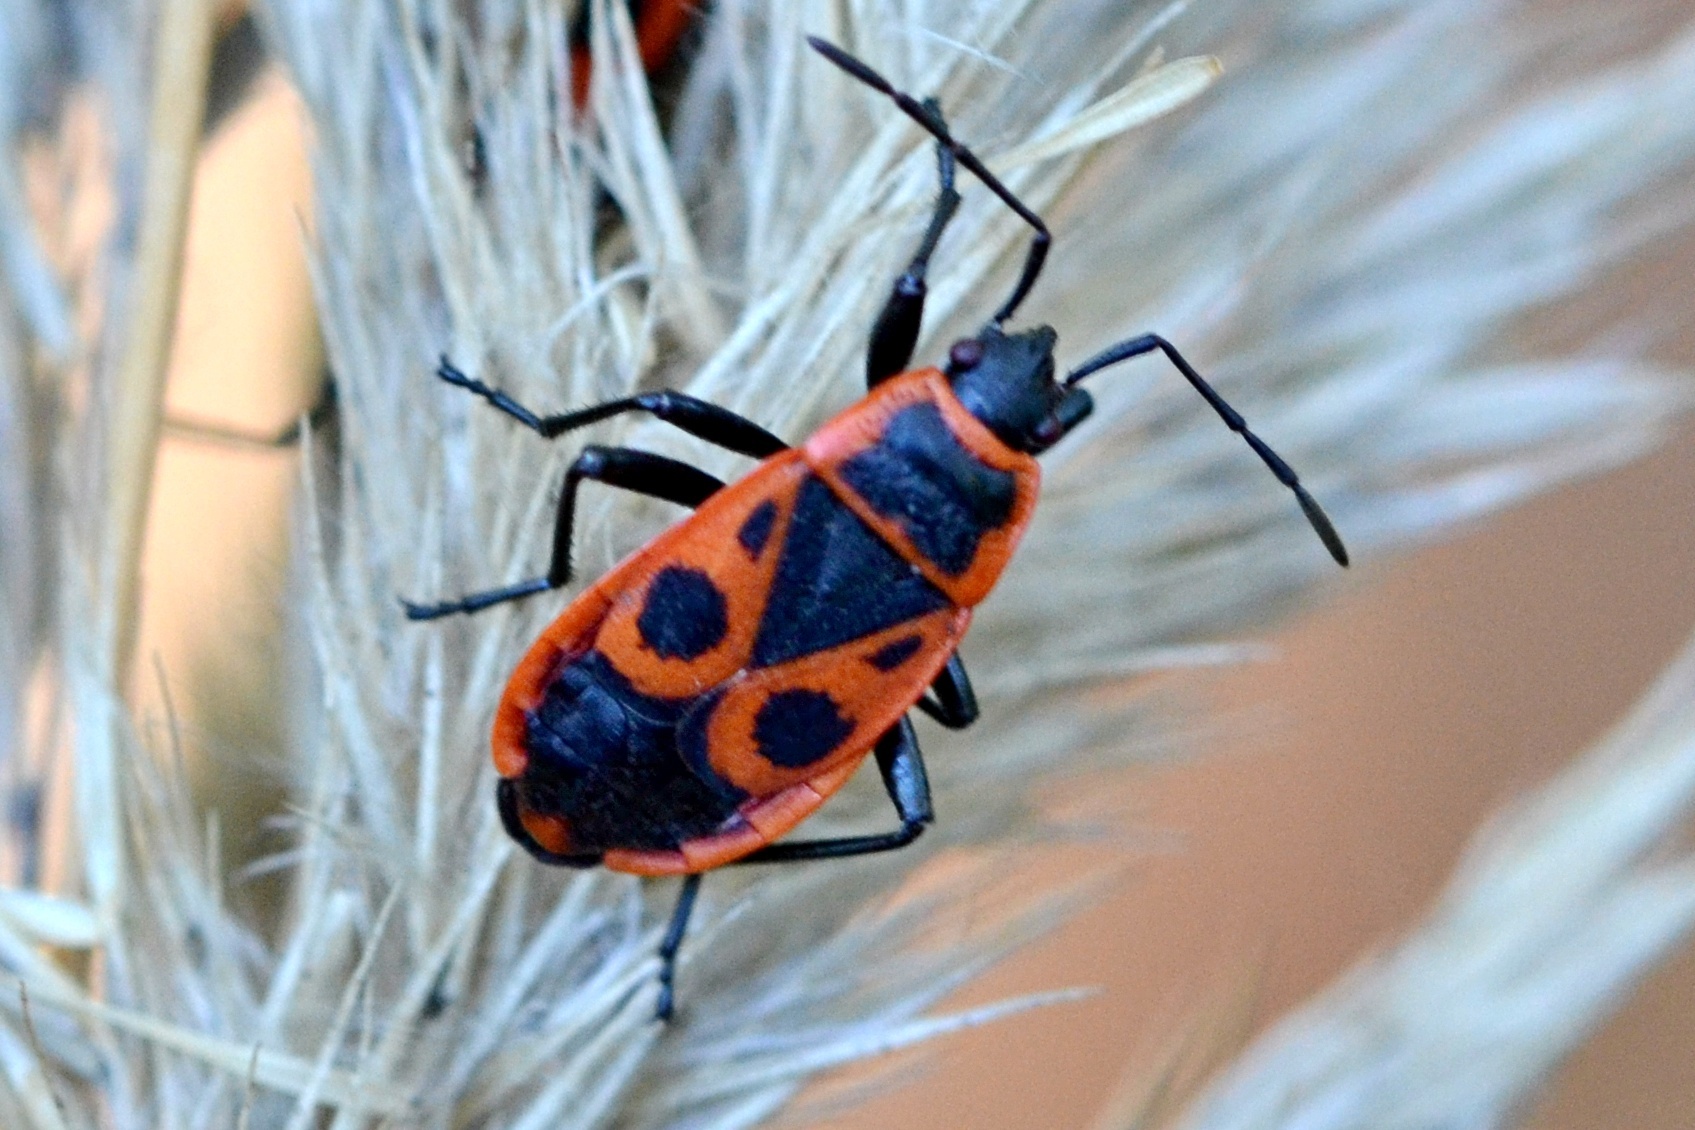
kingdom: Animalia
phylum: Arthropoda
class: Insecta
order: Hemiptera
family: Pyrrhocoridae
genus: Pyrrhocoris
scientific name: Pyrrhocoris apterus
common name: Firebug
